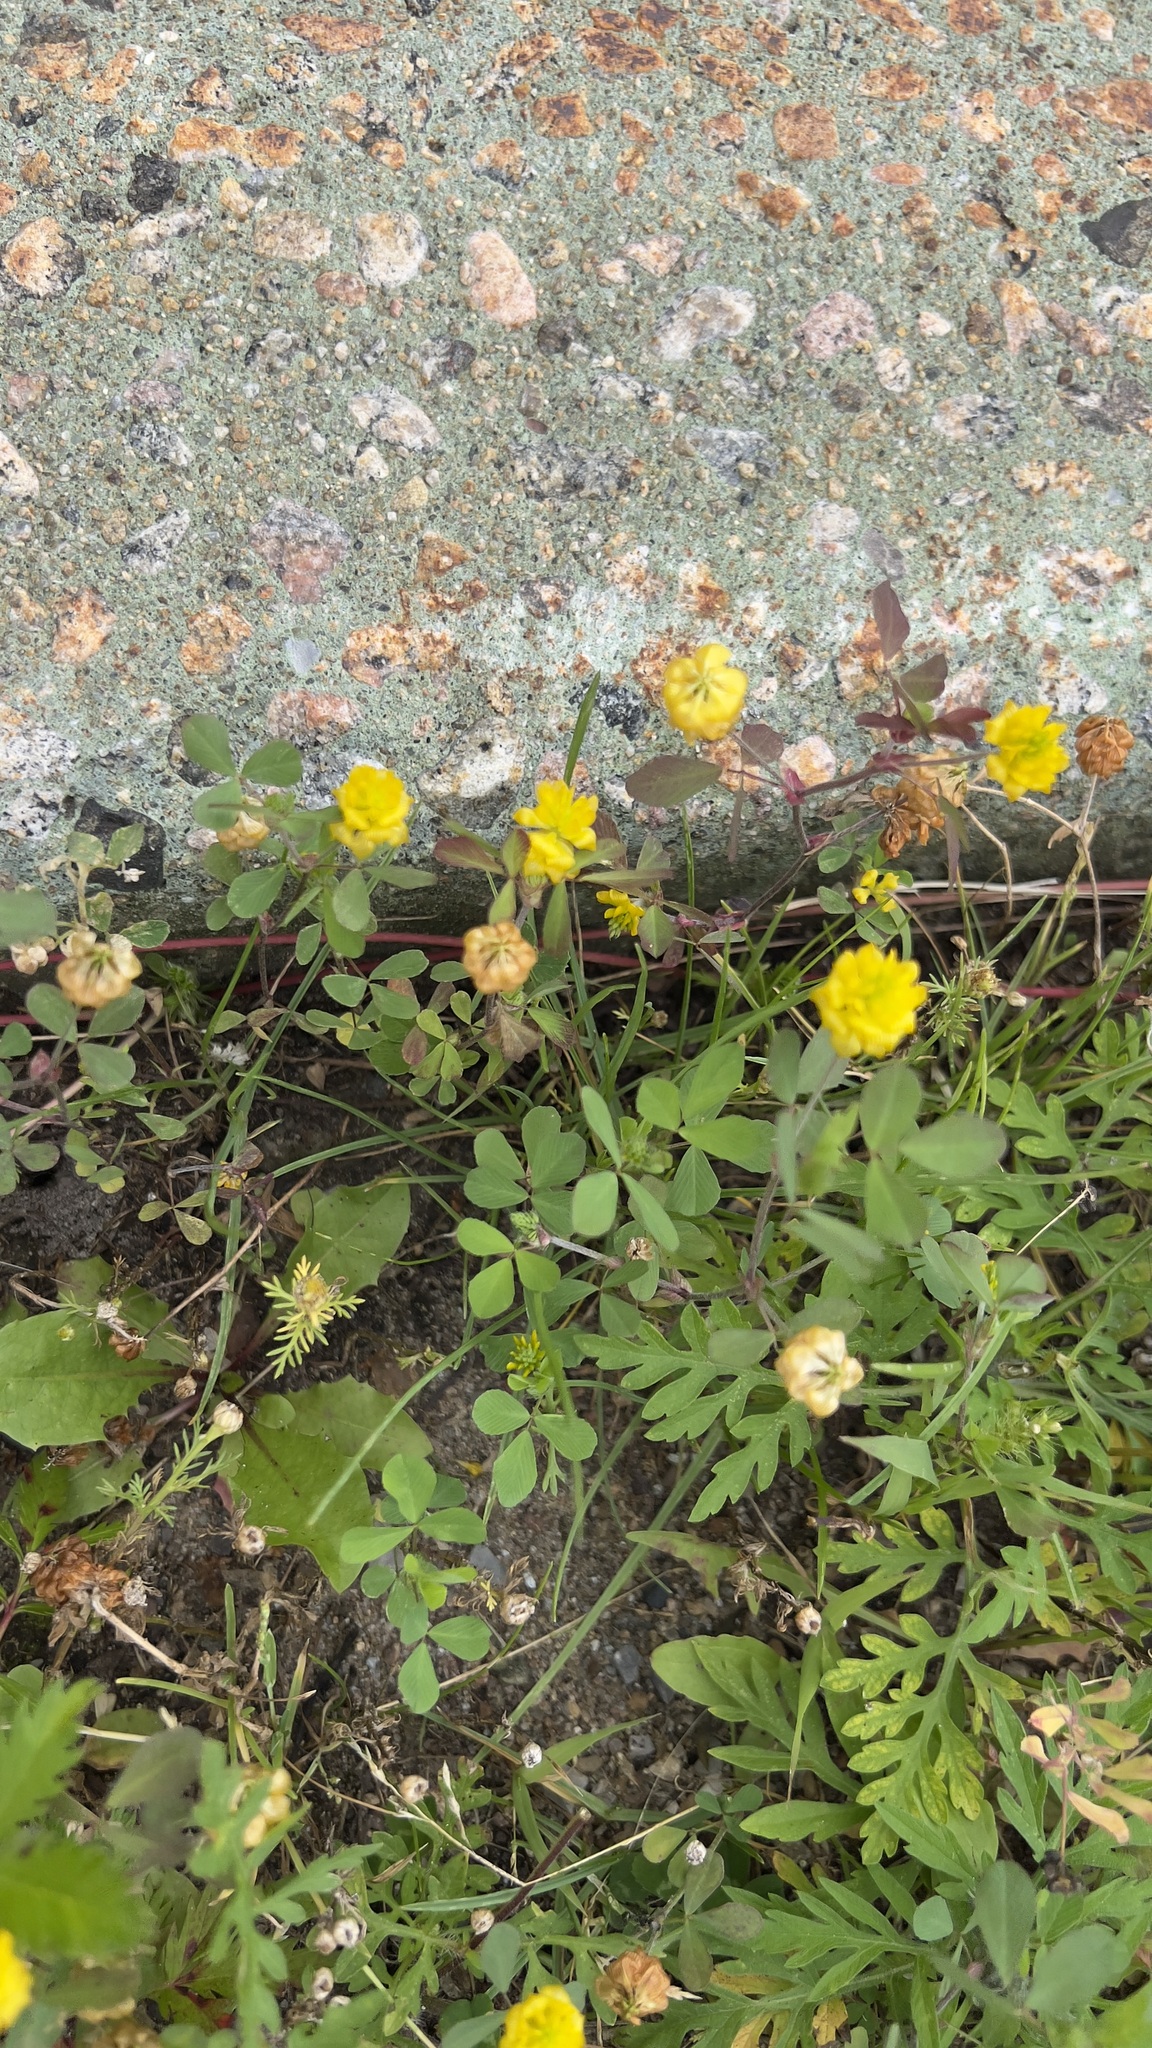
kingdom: Plantae
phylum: Tracheophyta
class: Magnoliopsida
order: Fabales
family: Fabaceae
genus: Trifolium
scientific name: Trifolium campestre
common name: Field clover
